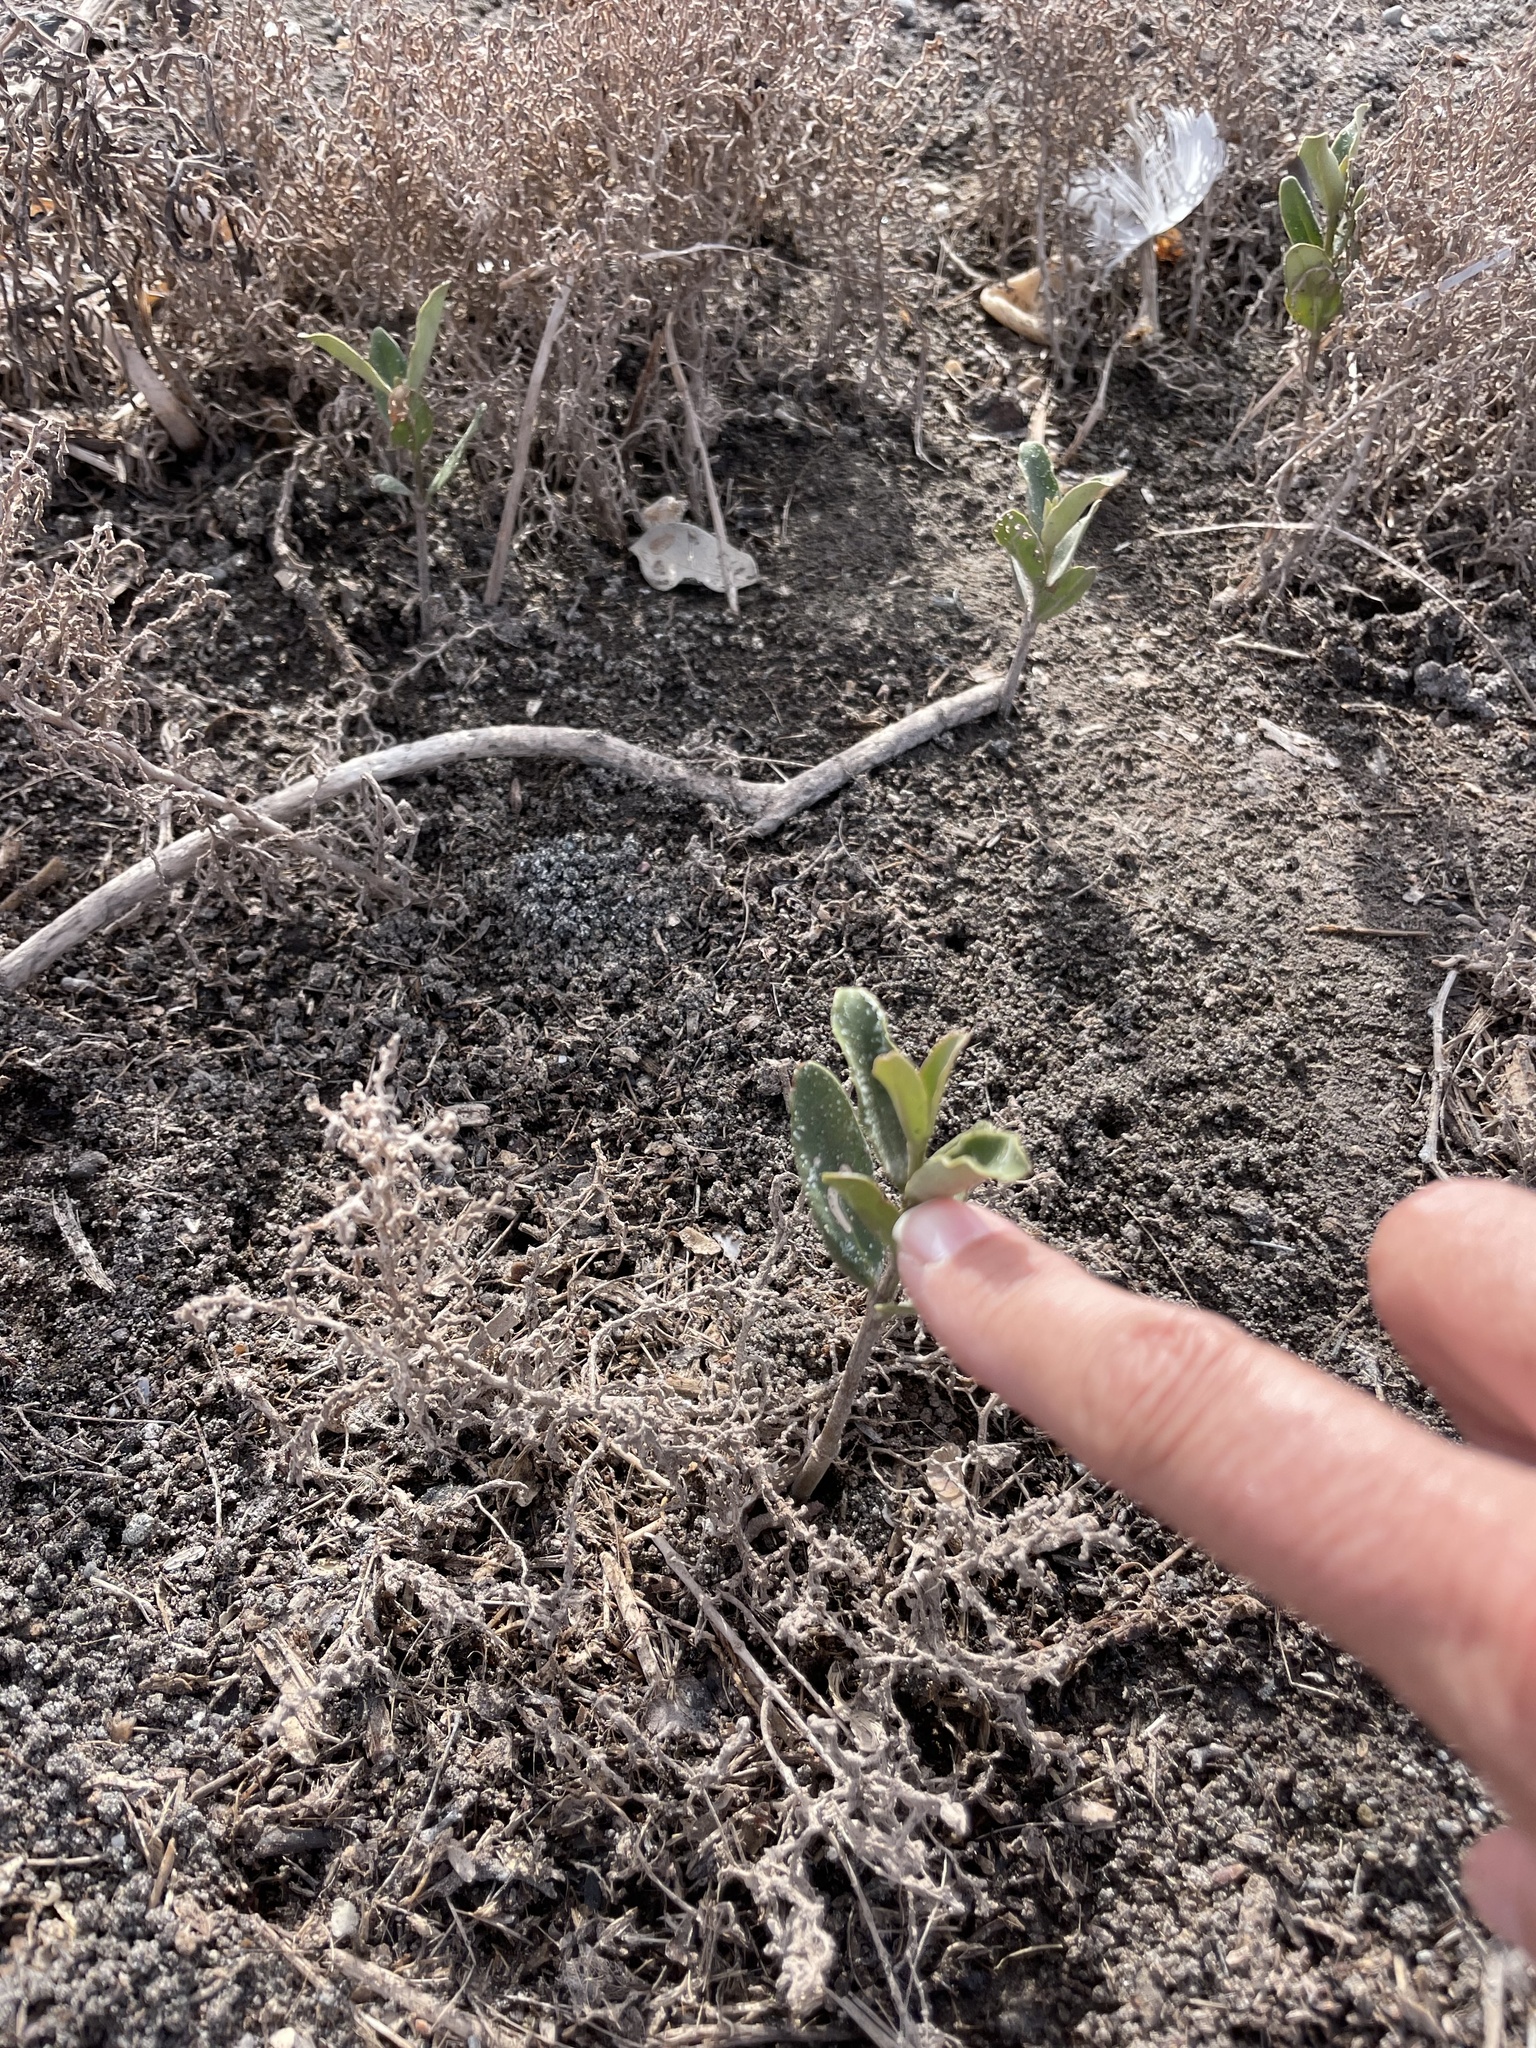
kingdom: Plantae
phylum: Tracheophyta
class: Magnoliopsida
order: Lamiales
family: Acanthaceae
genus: Avicennia
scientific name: Avicennia germinans
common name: Black mangrove
